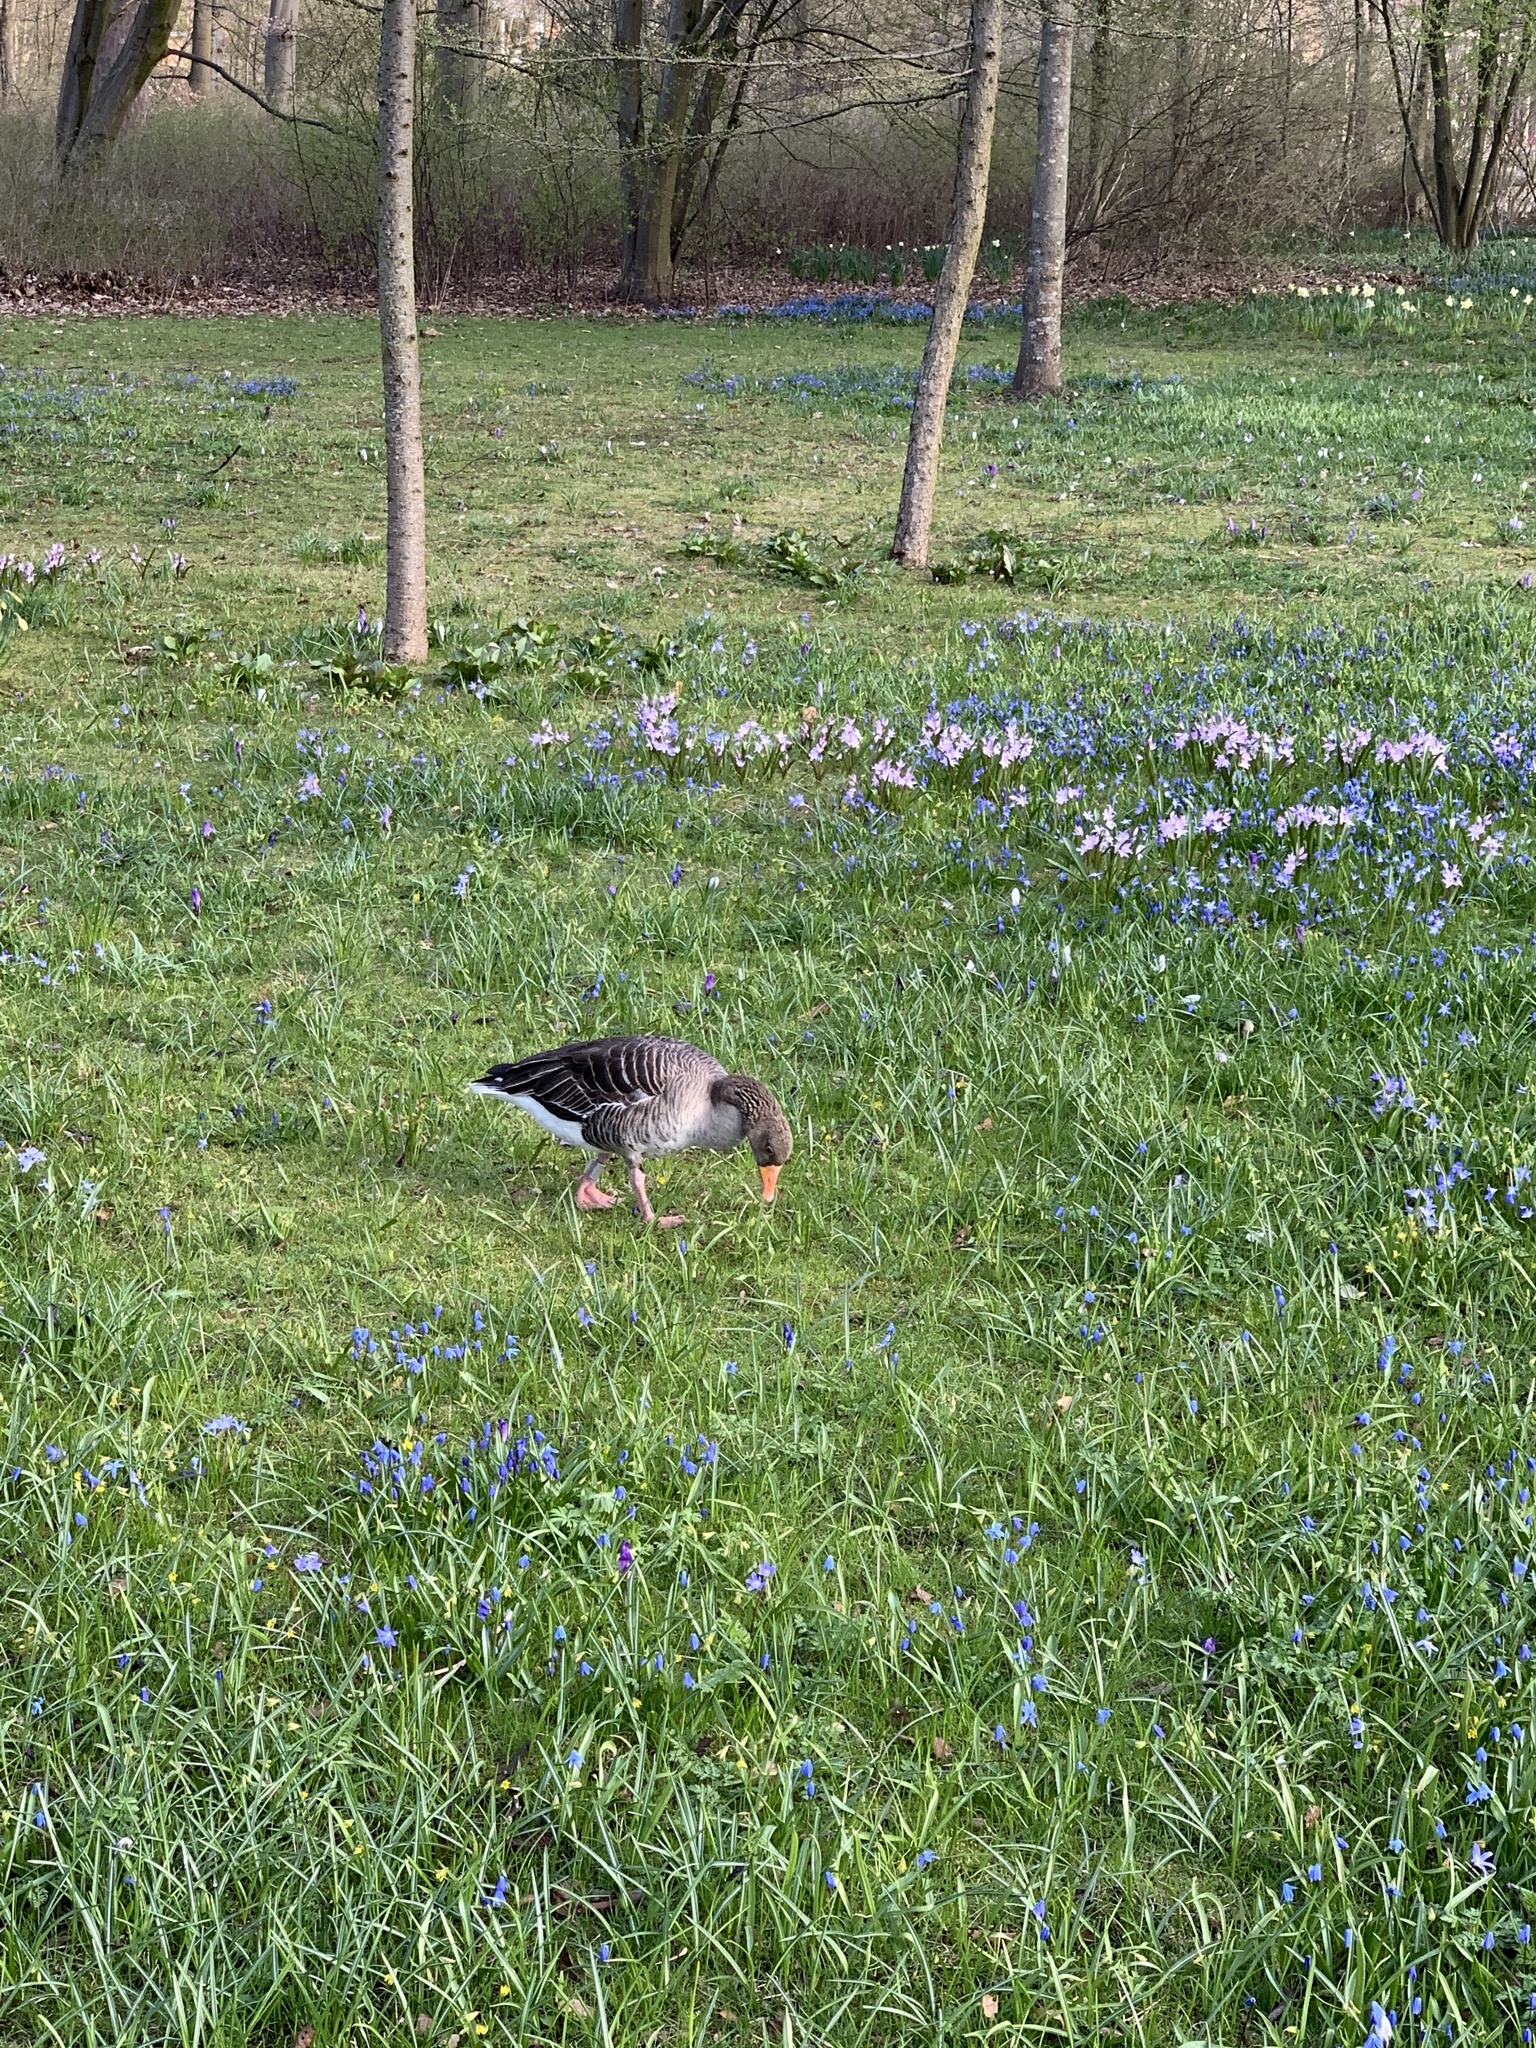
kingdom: Animalia
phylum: Chordata
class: Aves
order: Anseriformes
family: Anatidae
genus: Anser
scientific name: Anser anser
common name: Greylag goose
